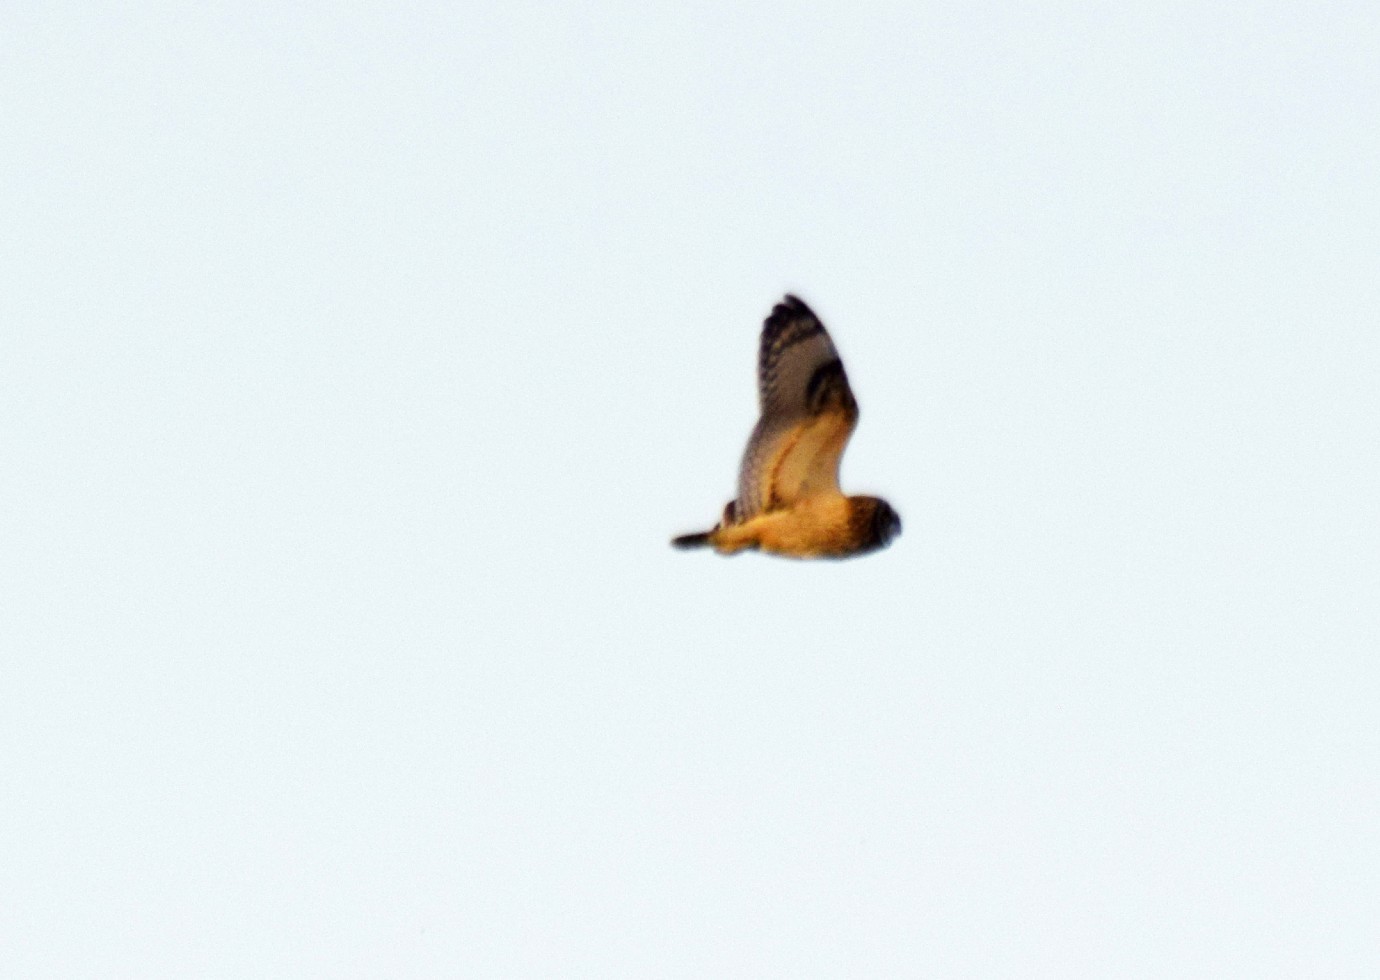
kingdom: Animalia
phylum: Chordata
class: Aves
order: Strigiformes
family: Strigidae
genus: Asio
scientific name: Asio flammeus
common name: Short-eared owl
